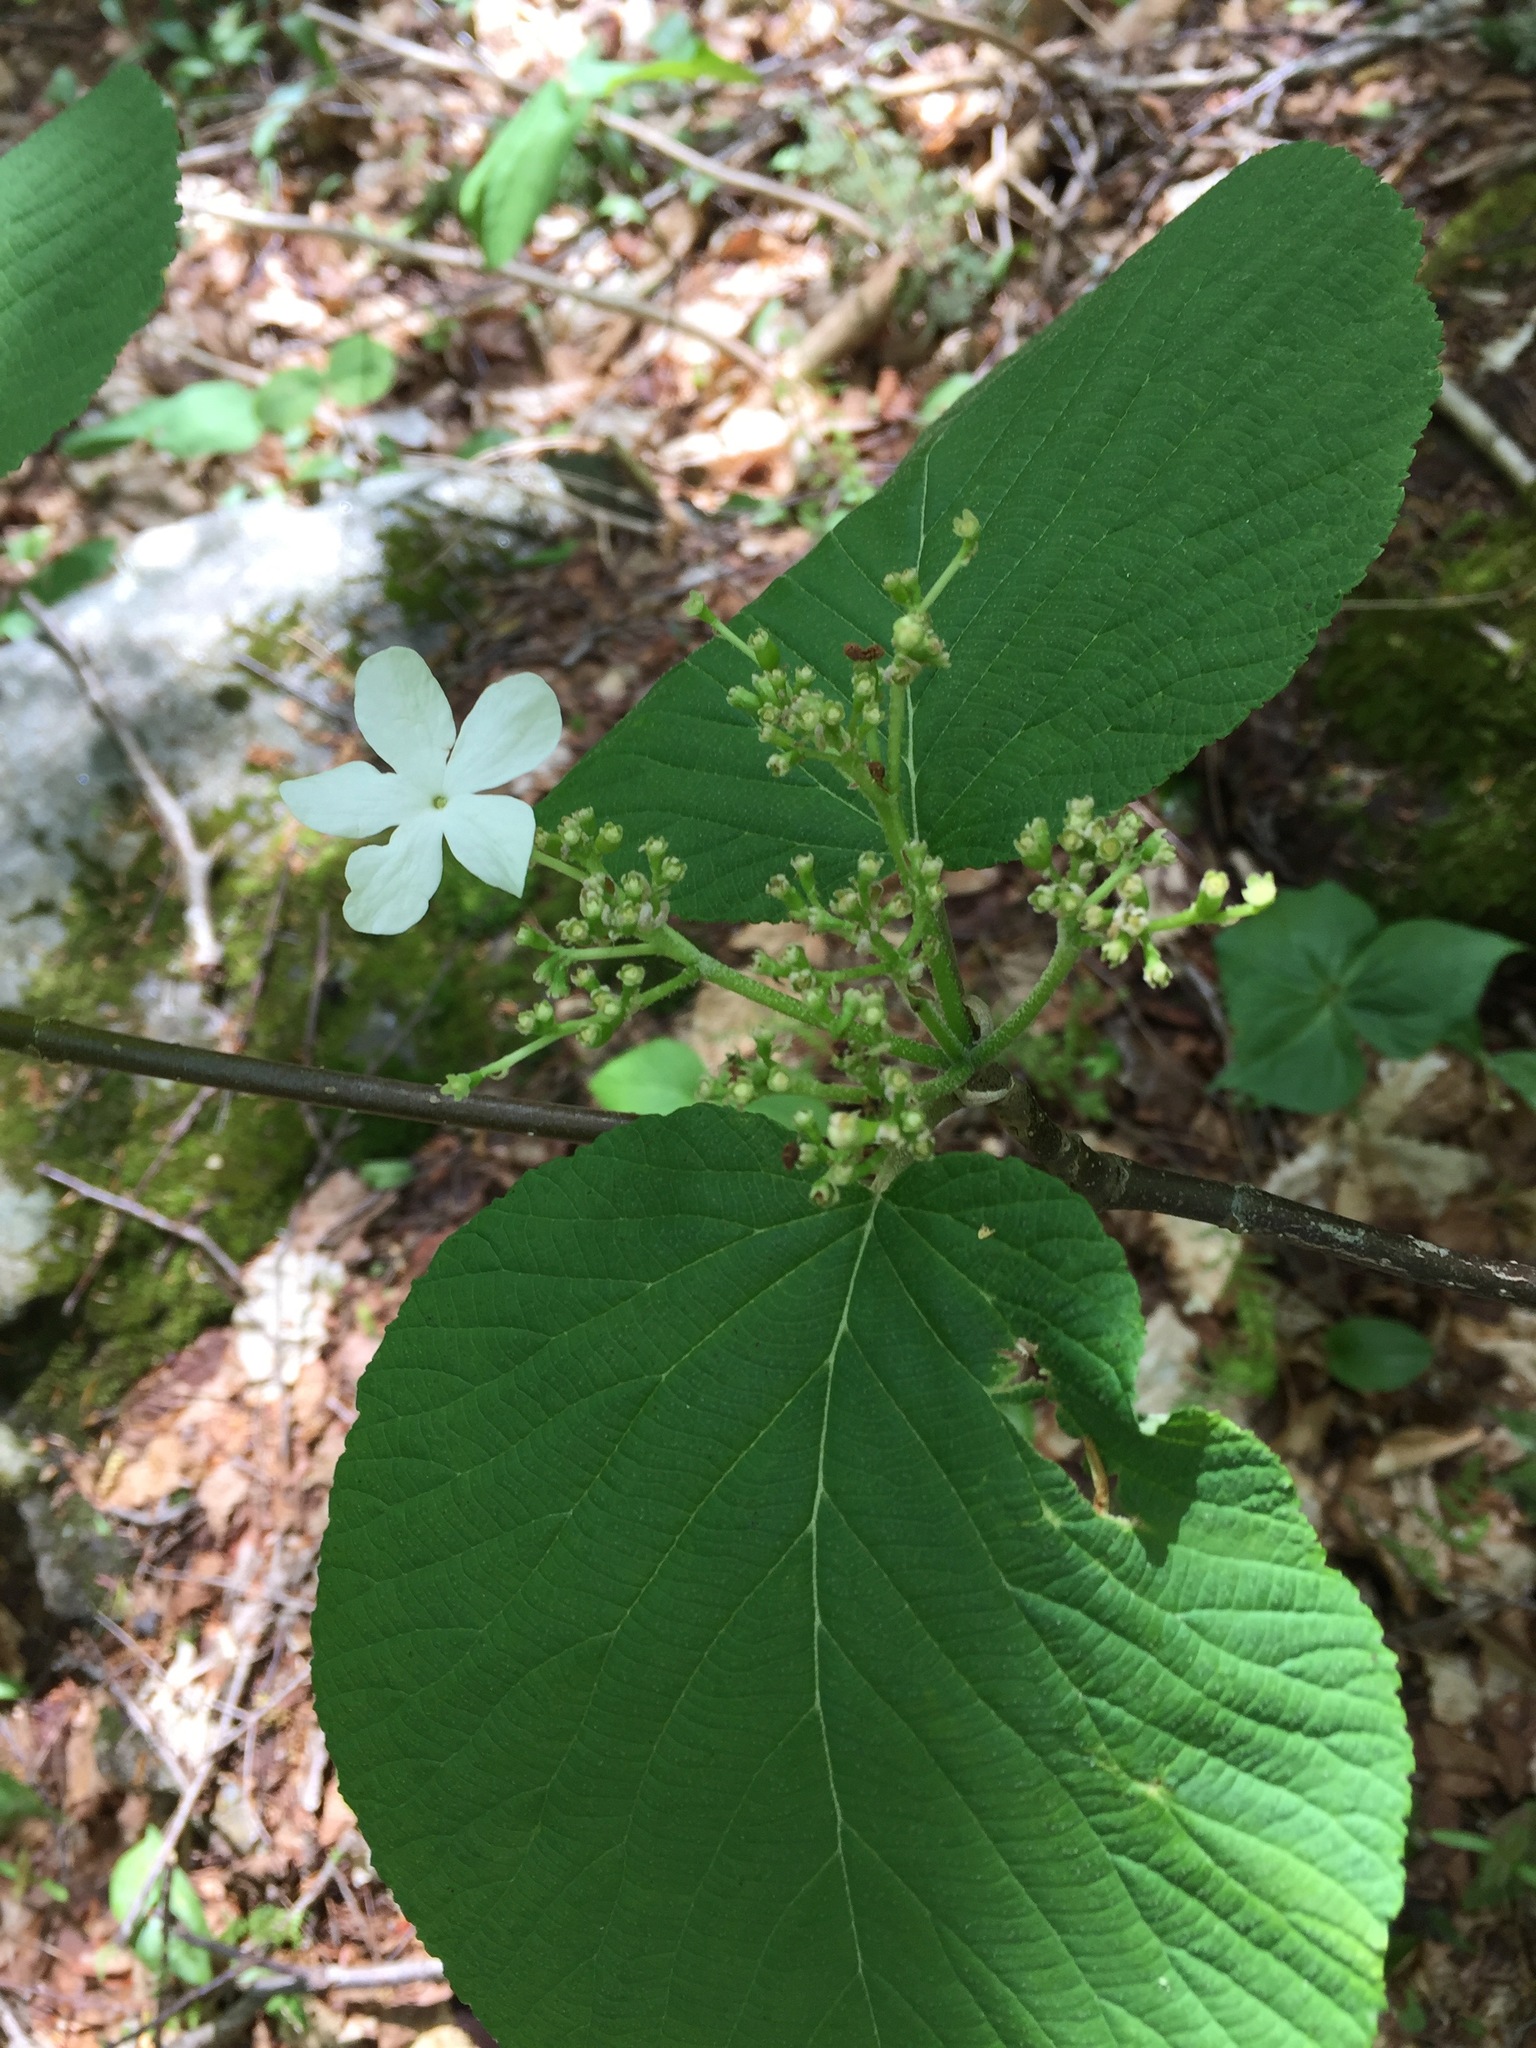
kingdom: Plantae
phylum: Tracheophyta
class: Magnoliopsida
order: Dipsacales
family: Viburnaceae
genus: Viburnum
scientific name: Viburnum lantanoides
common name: Hobblebush
